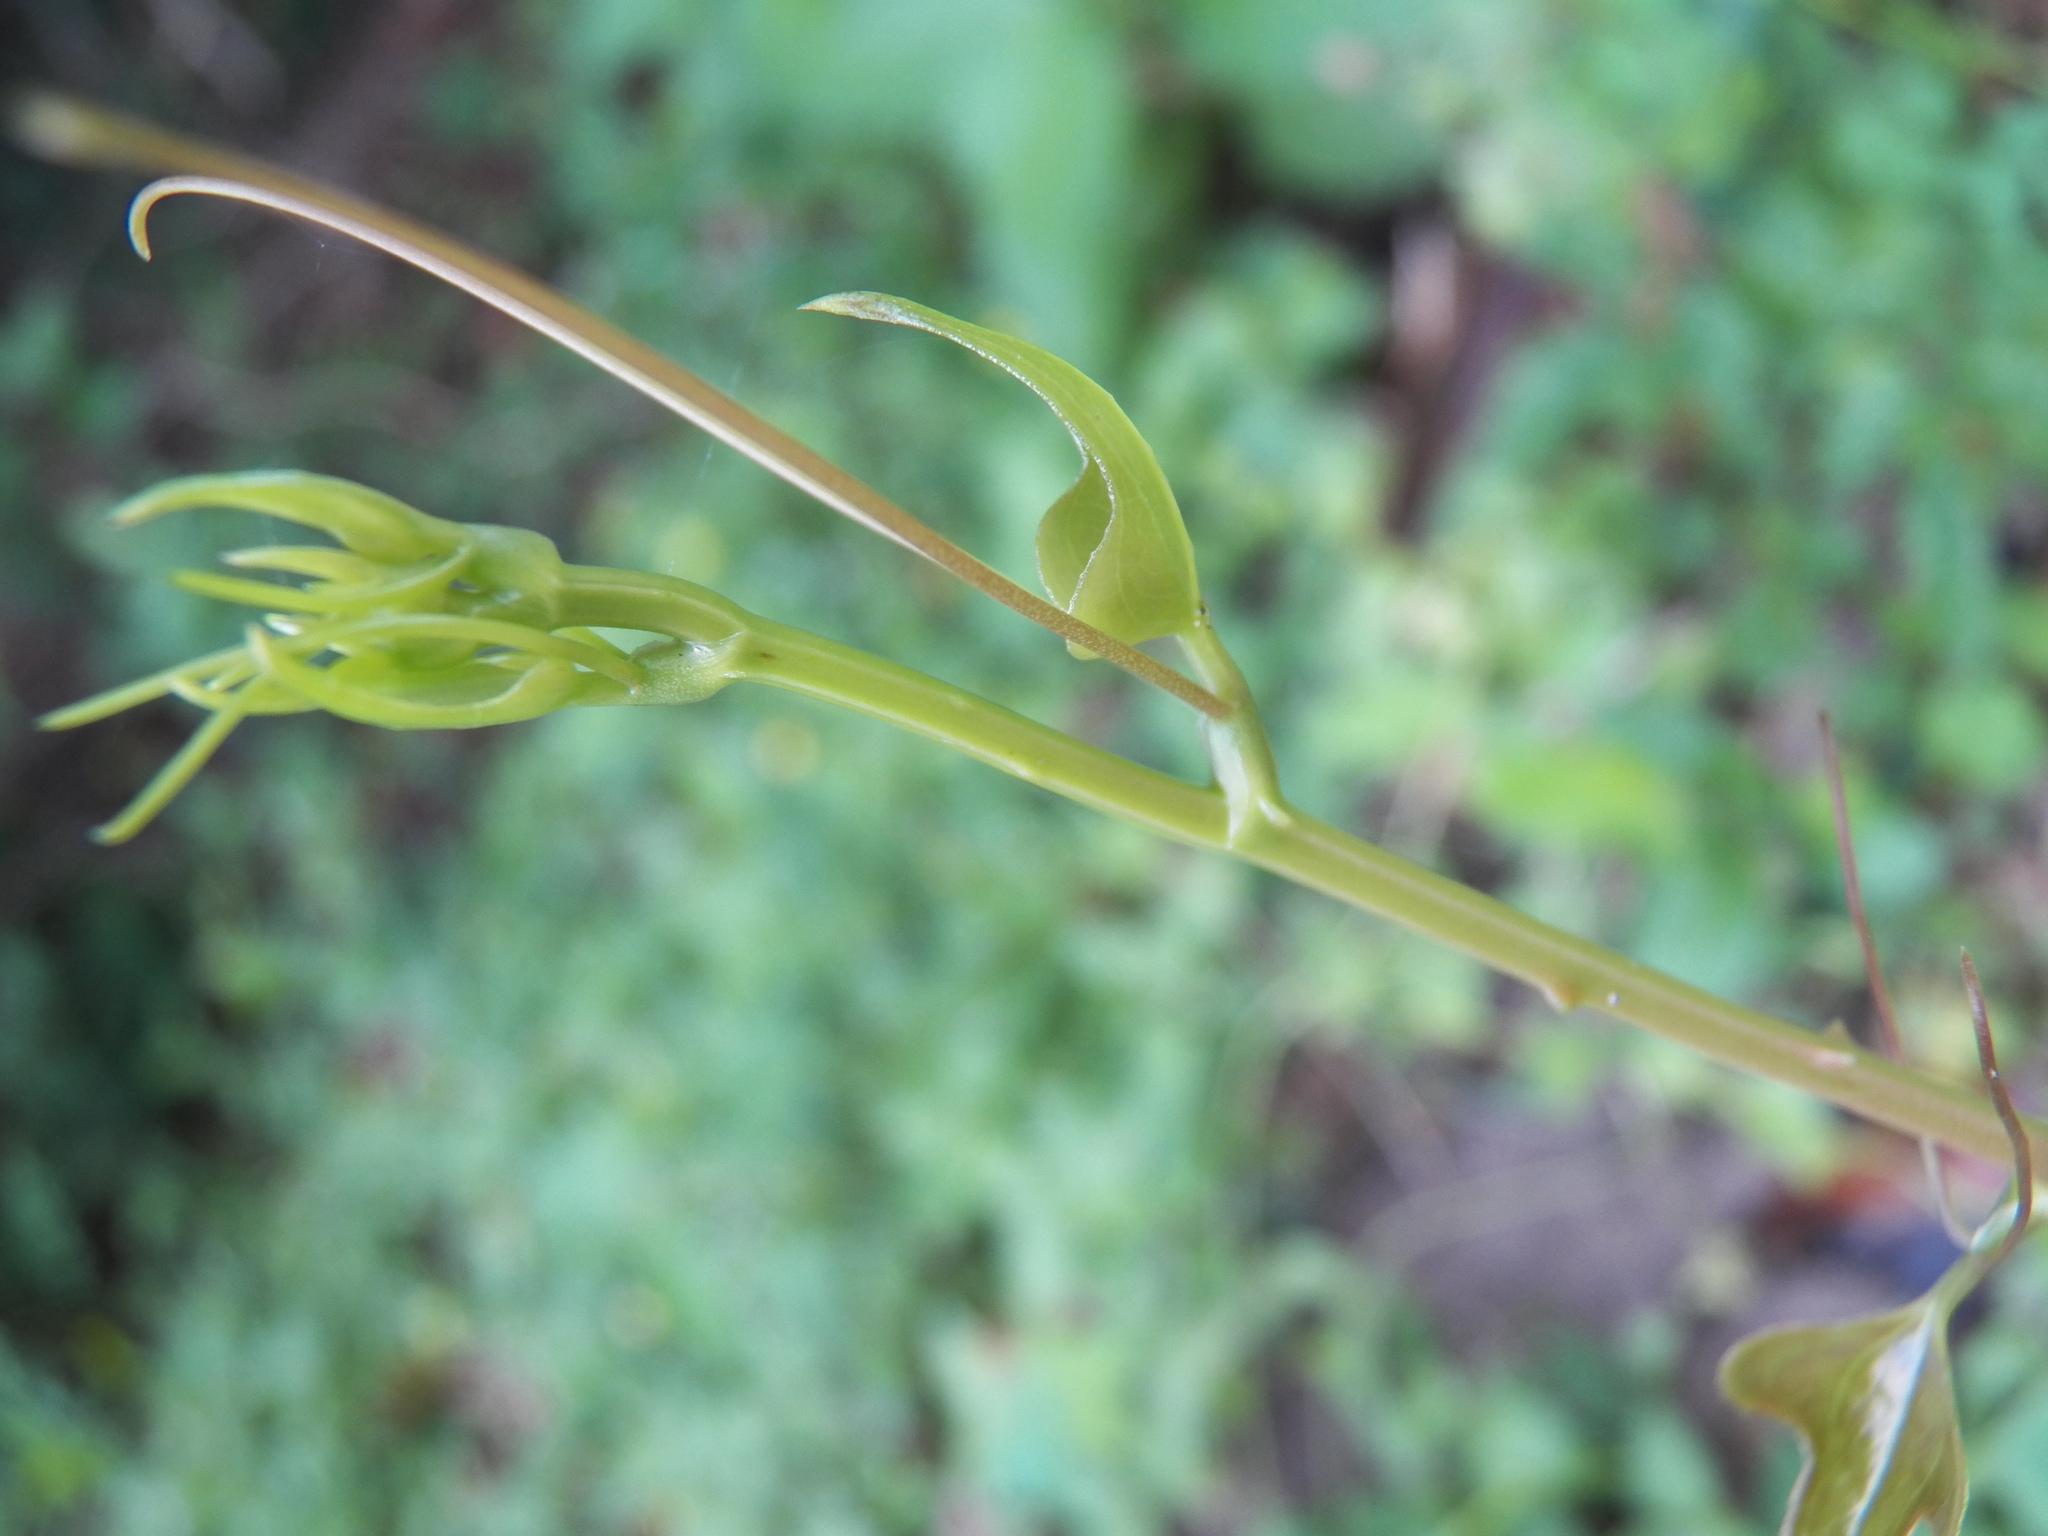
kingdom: Plantae
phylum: Tracheophyta
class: Liliopsida
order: Liliales
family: Smilacaceae
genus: Smilax
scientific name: Smilax bona-nox
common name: Catbrier
